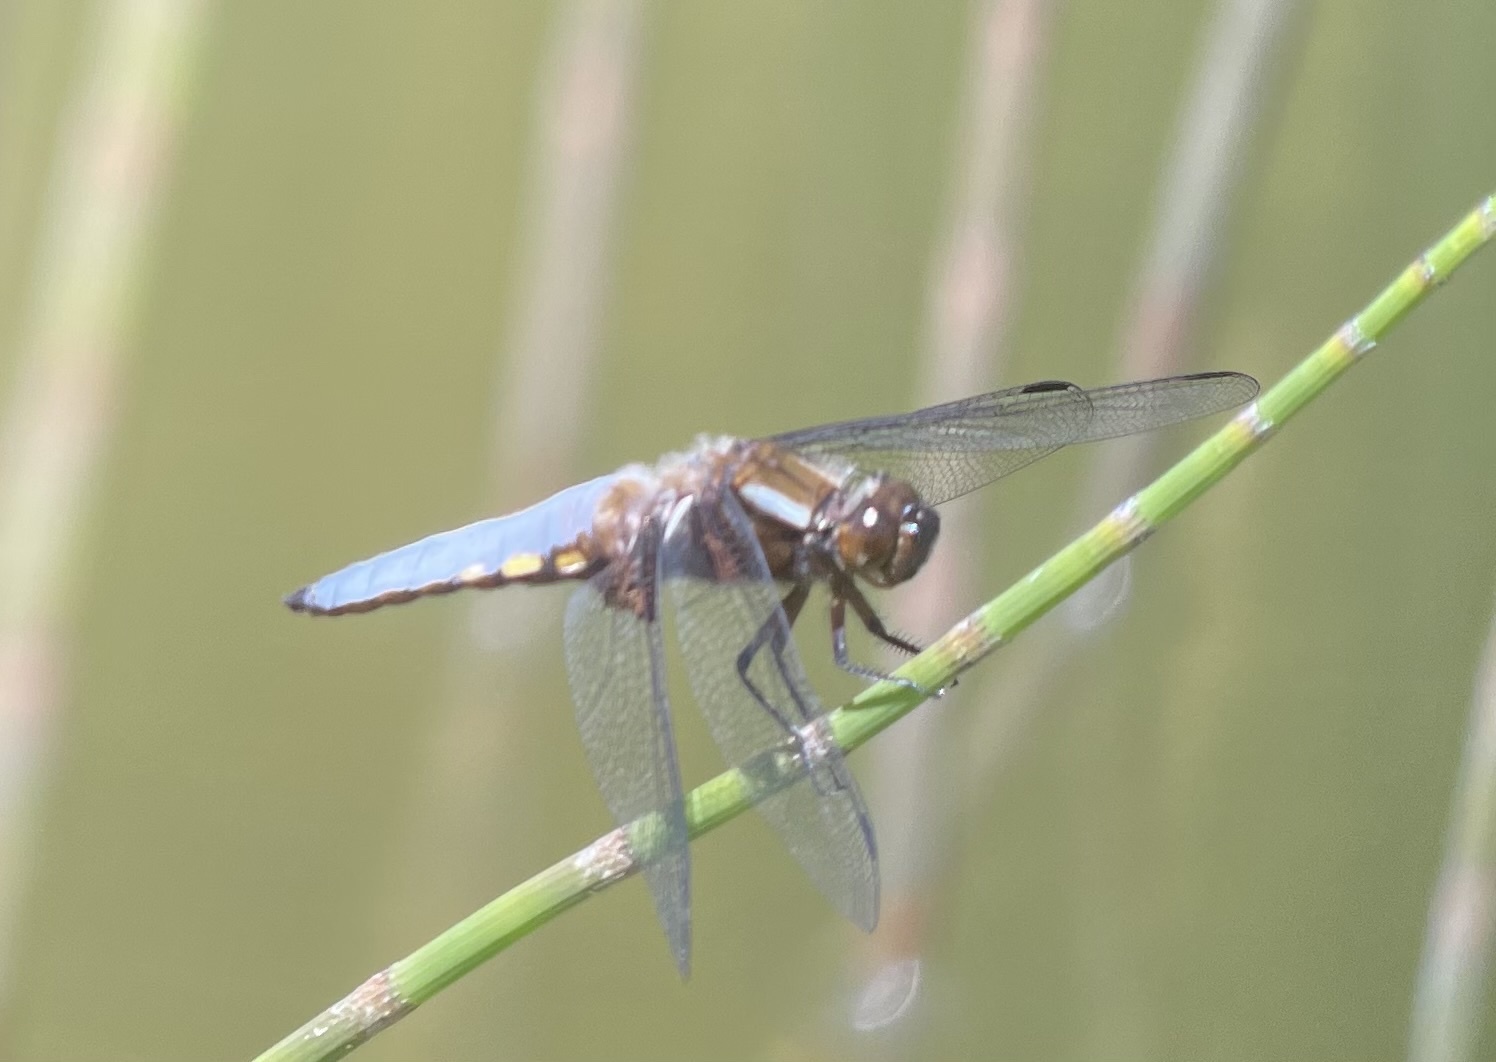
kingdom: Animalia
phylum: Arthropoda
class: Insecta
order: Odonata
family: Libellulidae
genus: Libellula
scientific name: Libellula depressa
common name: Broad-bodied chaser
